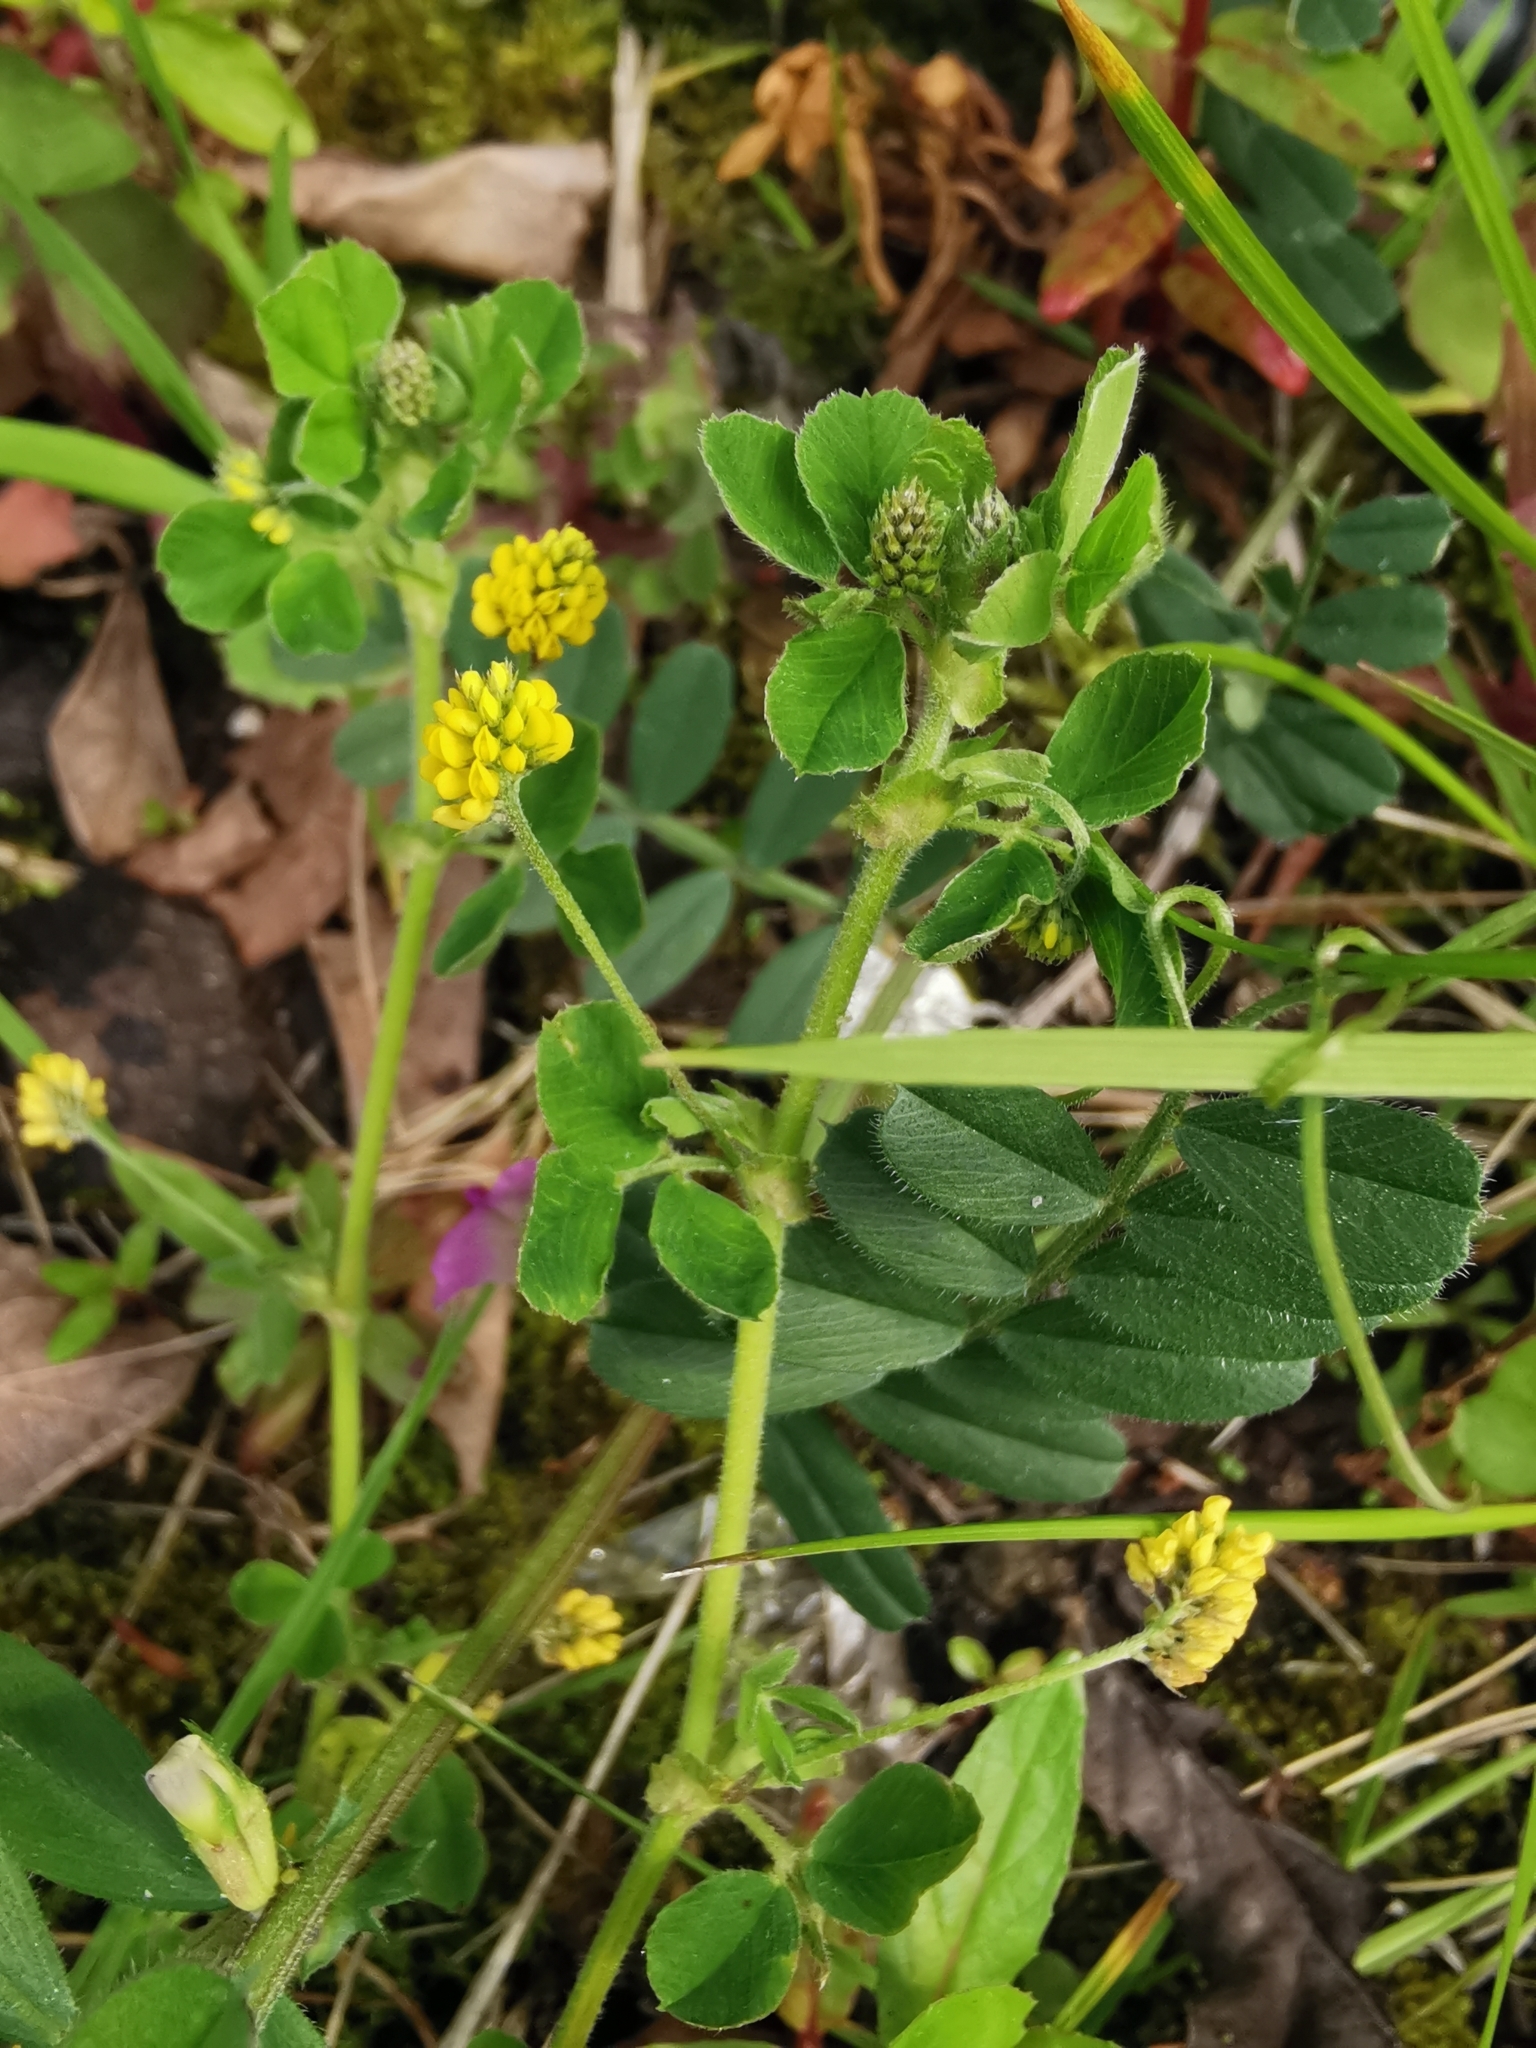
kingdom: Plantae
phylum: Tracheophyta
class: Magnoliopsida
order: Fabales
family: Fabaceae
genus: Medicago
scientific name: Medicago lupulina
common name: Black medick
